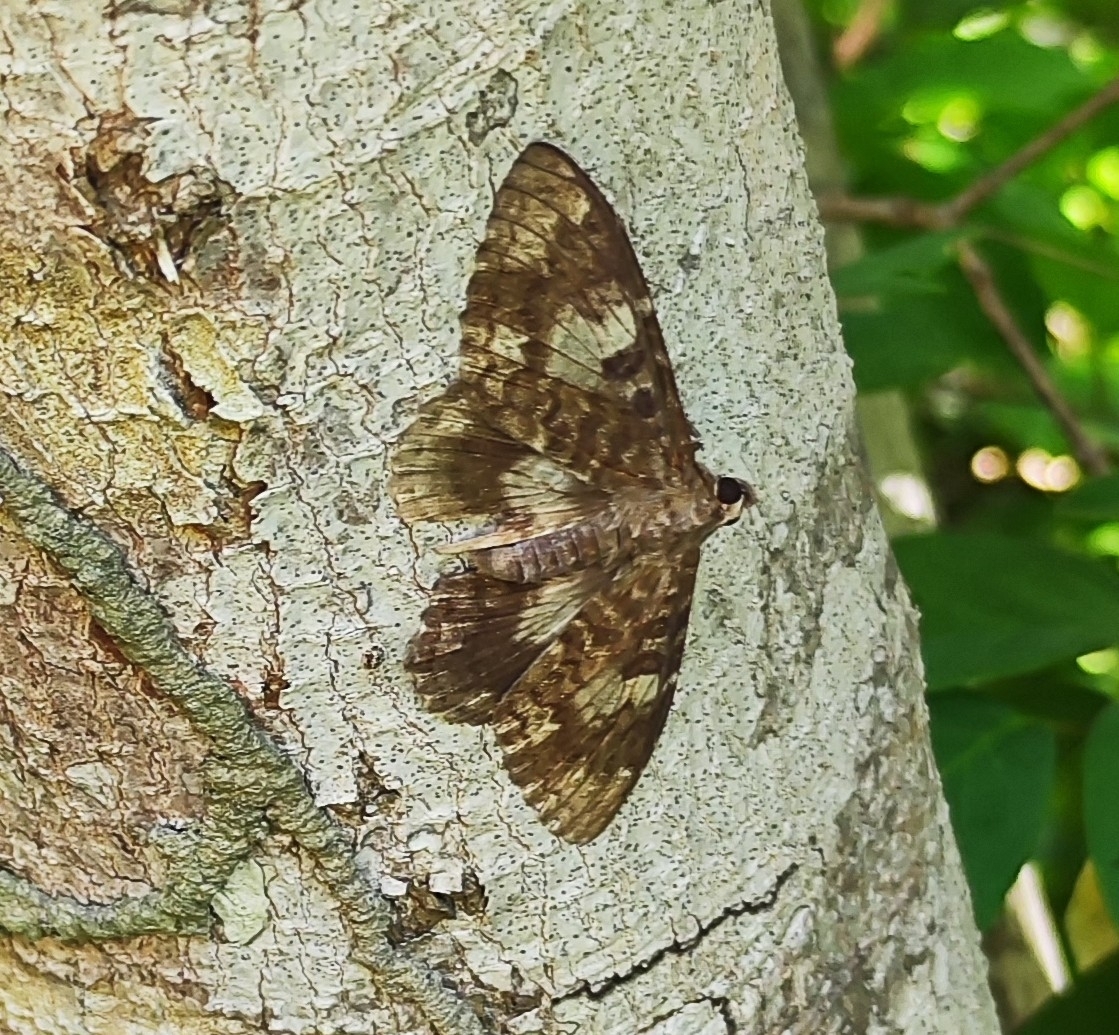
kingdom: Animalia
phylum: Arthropoda
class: Insecta
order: Lepidoptera
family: Erebidae
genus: Letis
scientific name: Letis specularis
